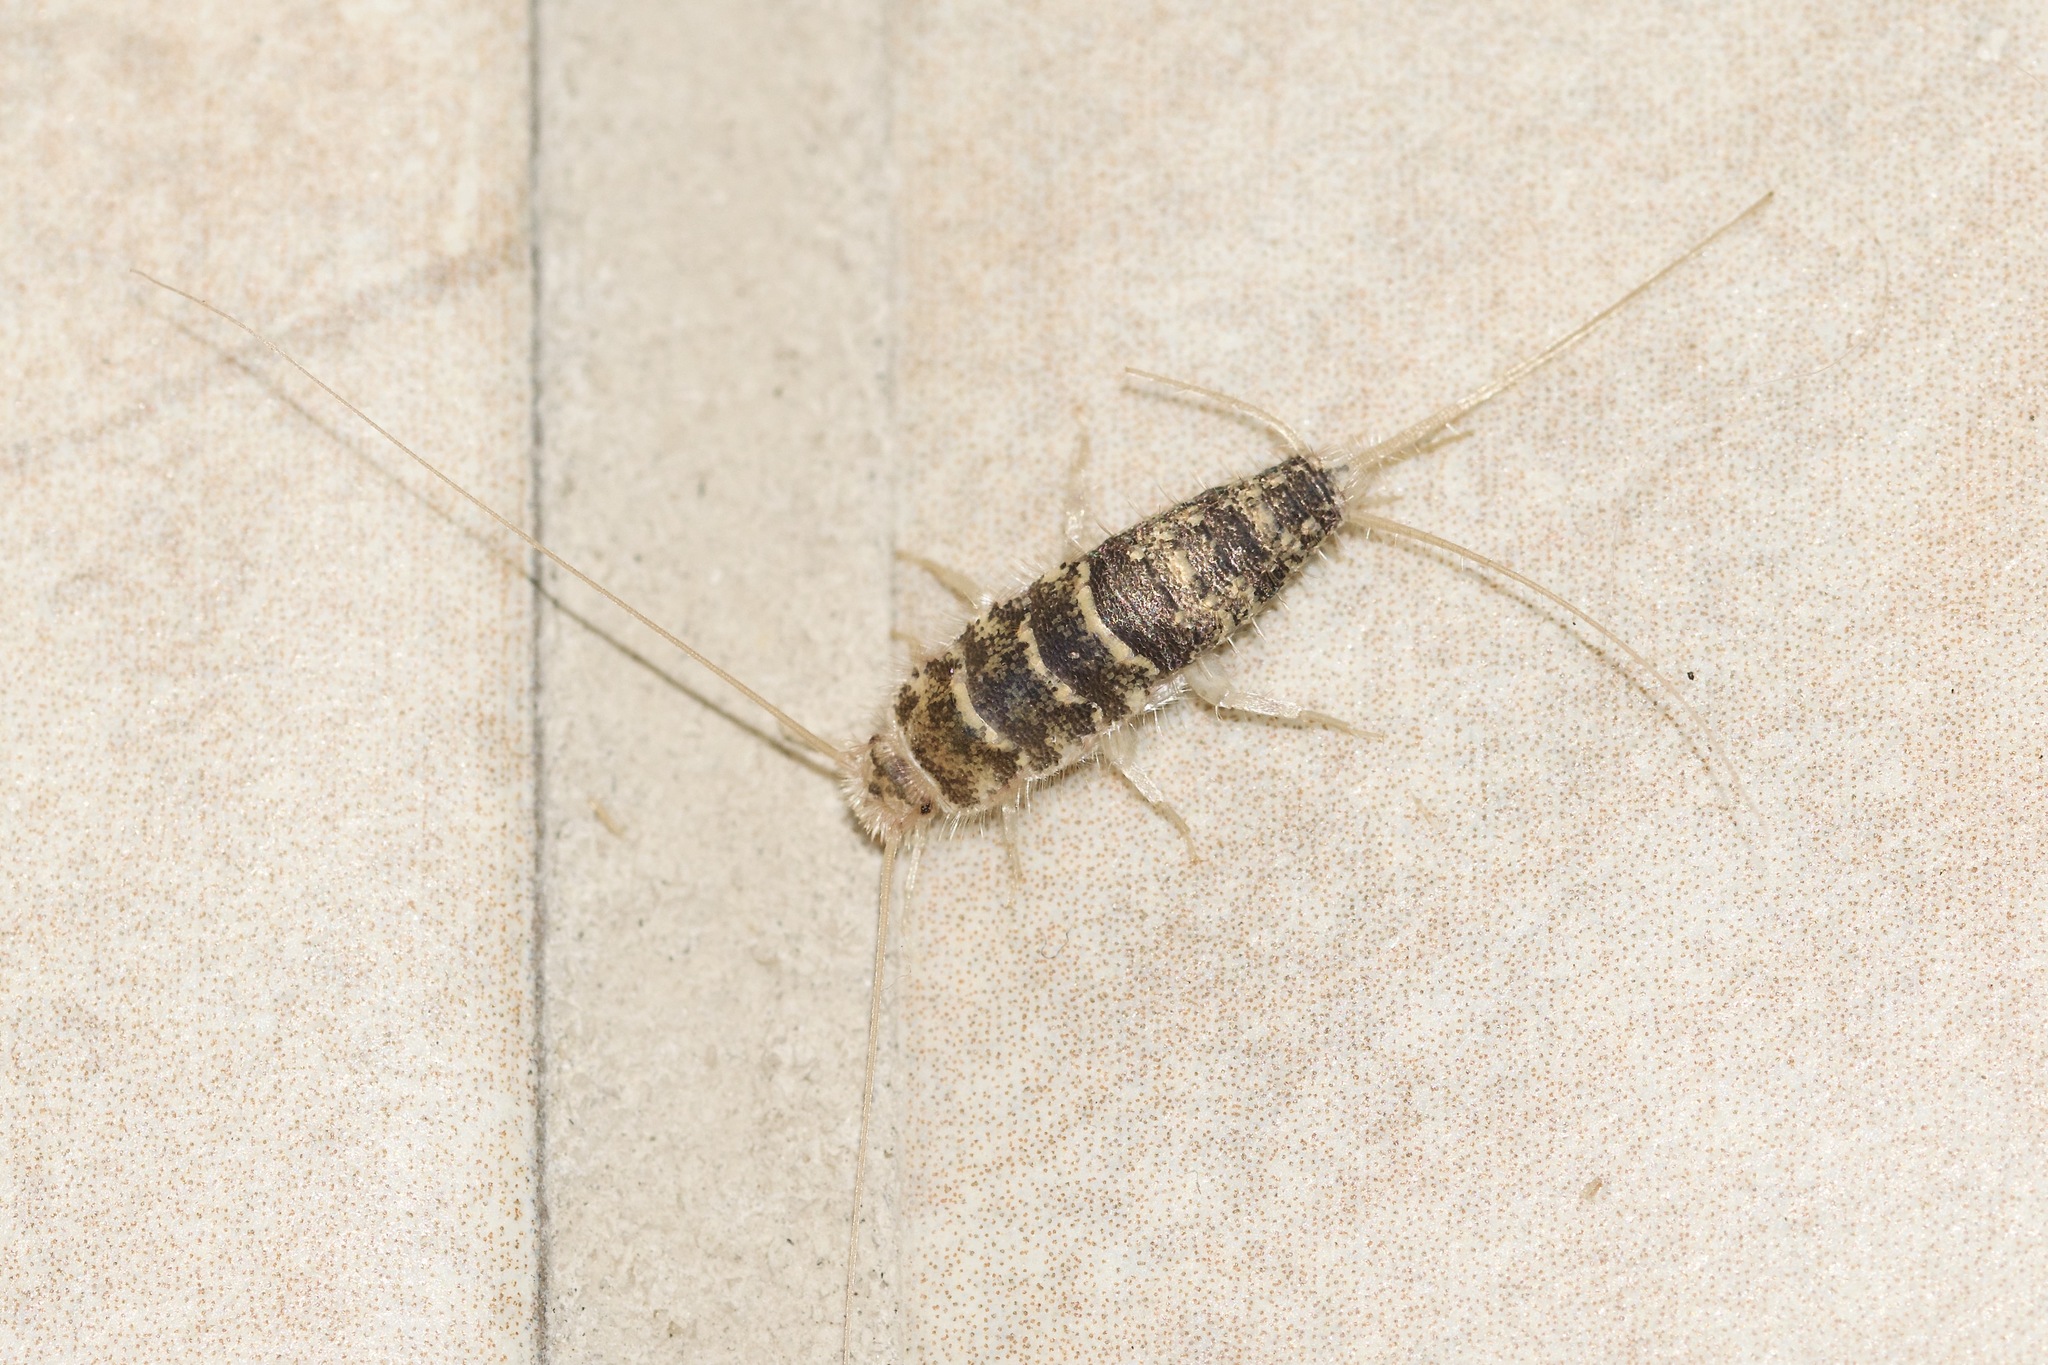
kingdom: Animalia
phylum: Arthropoda
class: Insecta
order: Zygentoma
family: Lepismatidae
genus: Thermobia
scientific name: Thermobia domestica
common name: Firebrat
